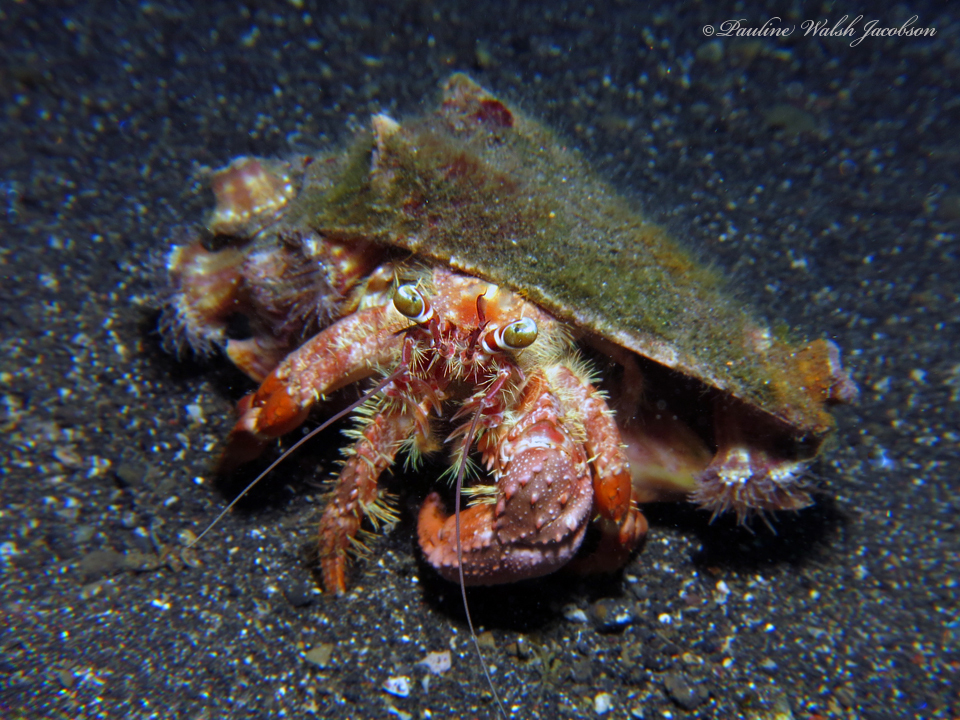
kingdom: Animalia
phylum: Arthropoda
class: Malacostraca
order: Decapoda
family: Diogenidae
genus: Dardanus
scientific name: Dardanus pedunculatus
